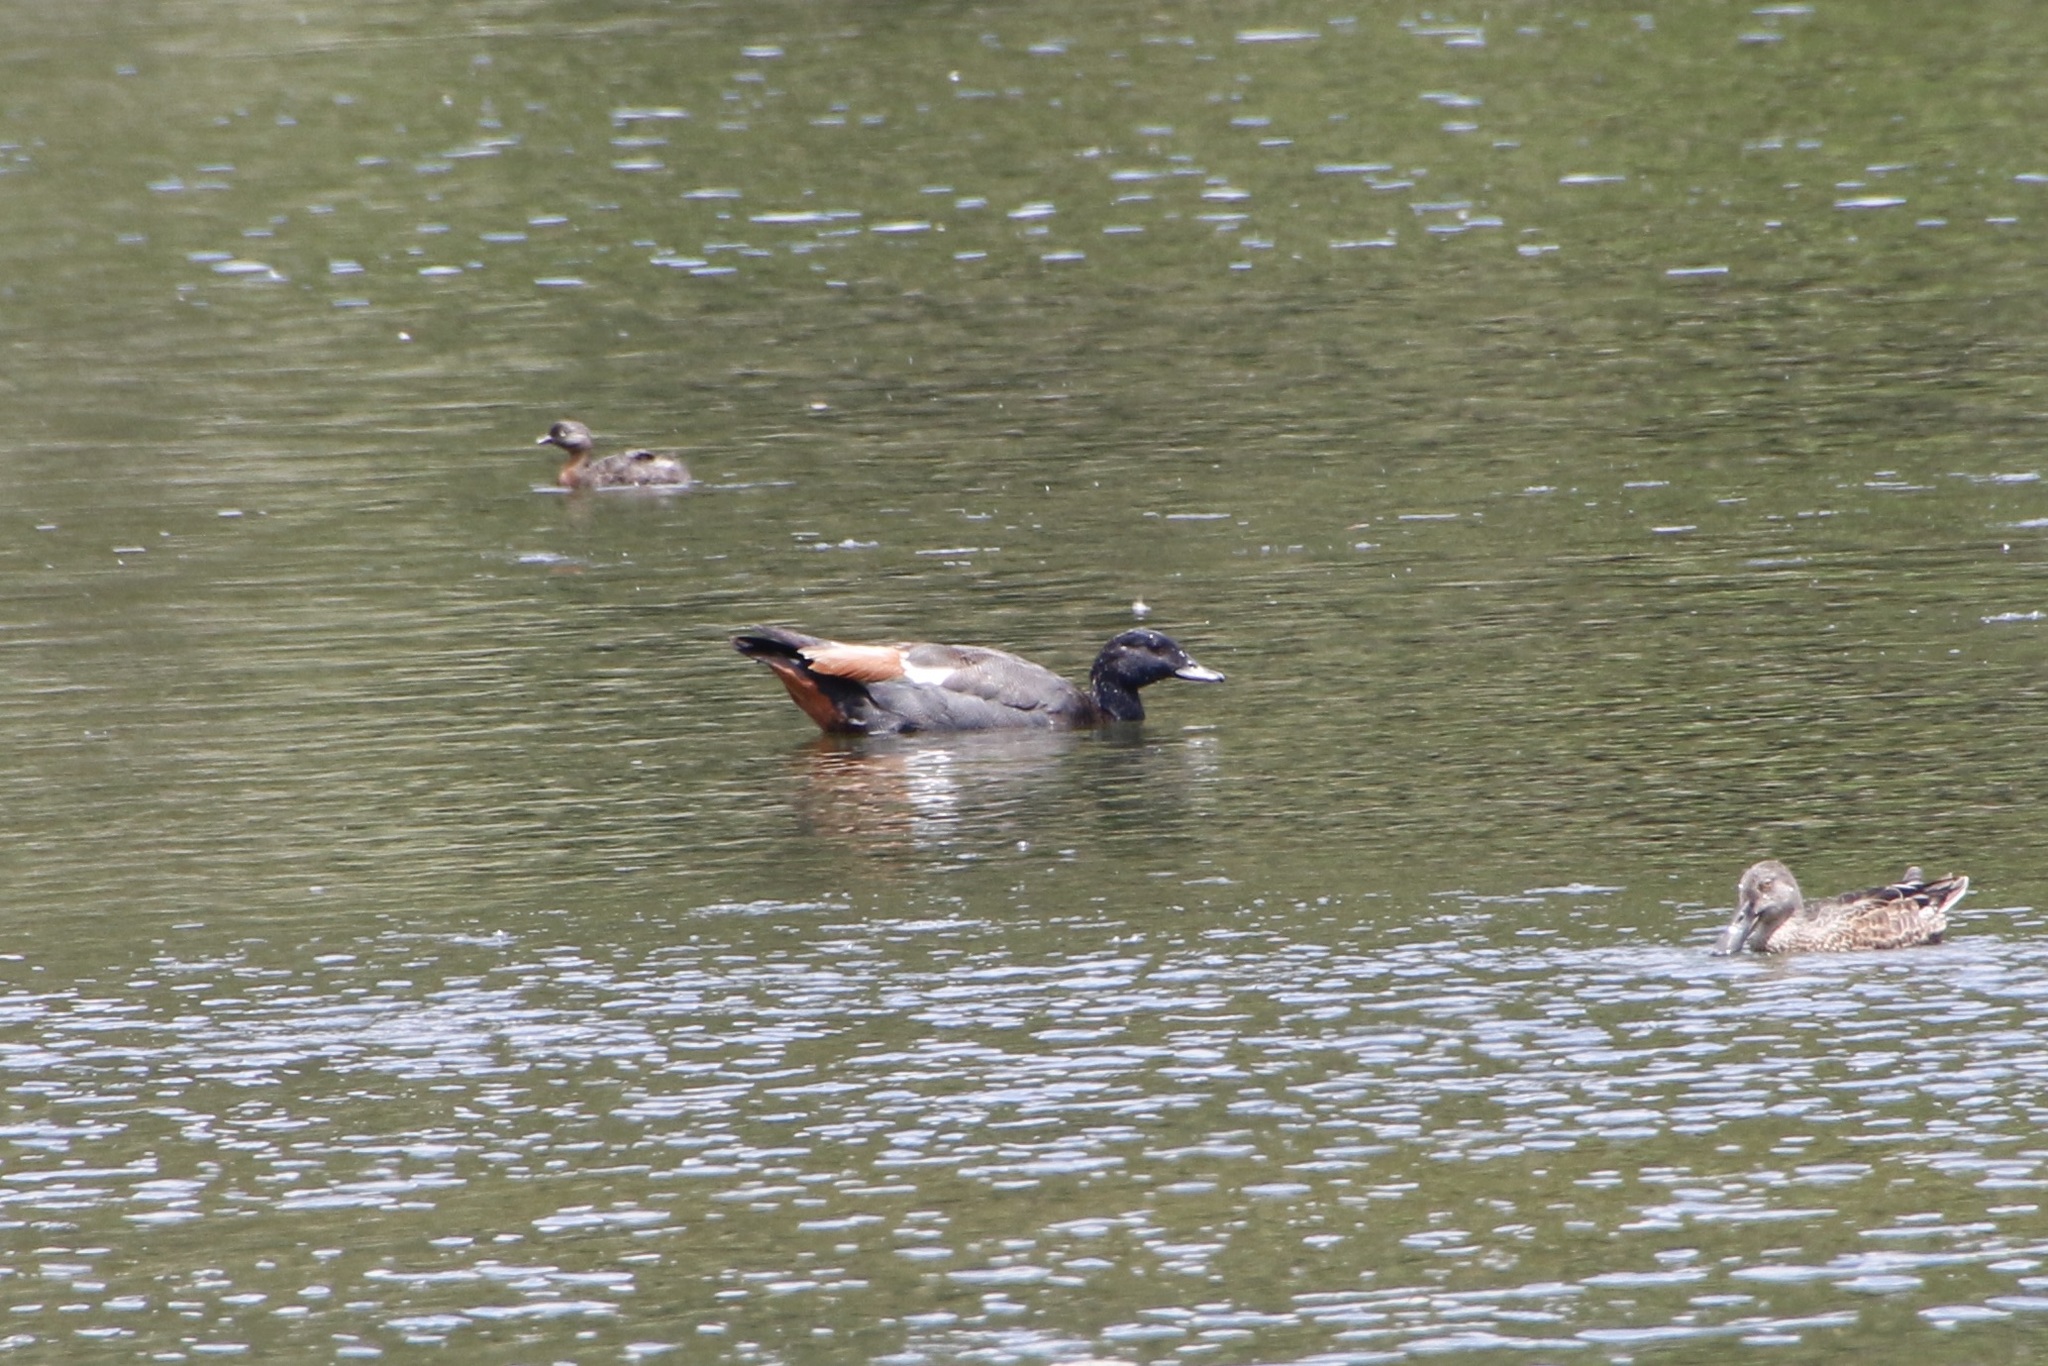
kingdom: Animalia
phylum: Chordata
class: Aves
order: Anseriformes
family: Anatidae
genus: Tadorna
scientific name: Tadorna variegata
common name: Paradise shelduck
